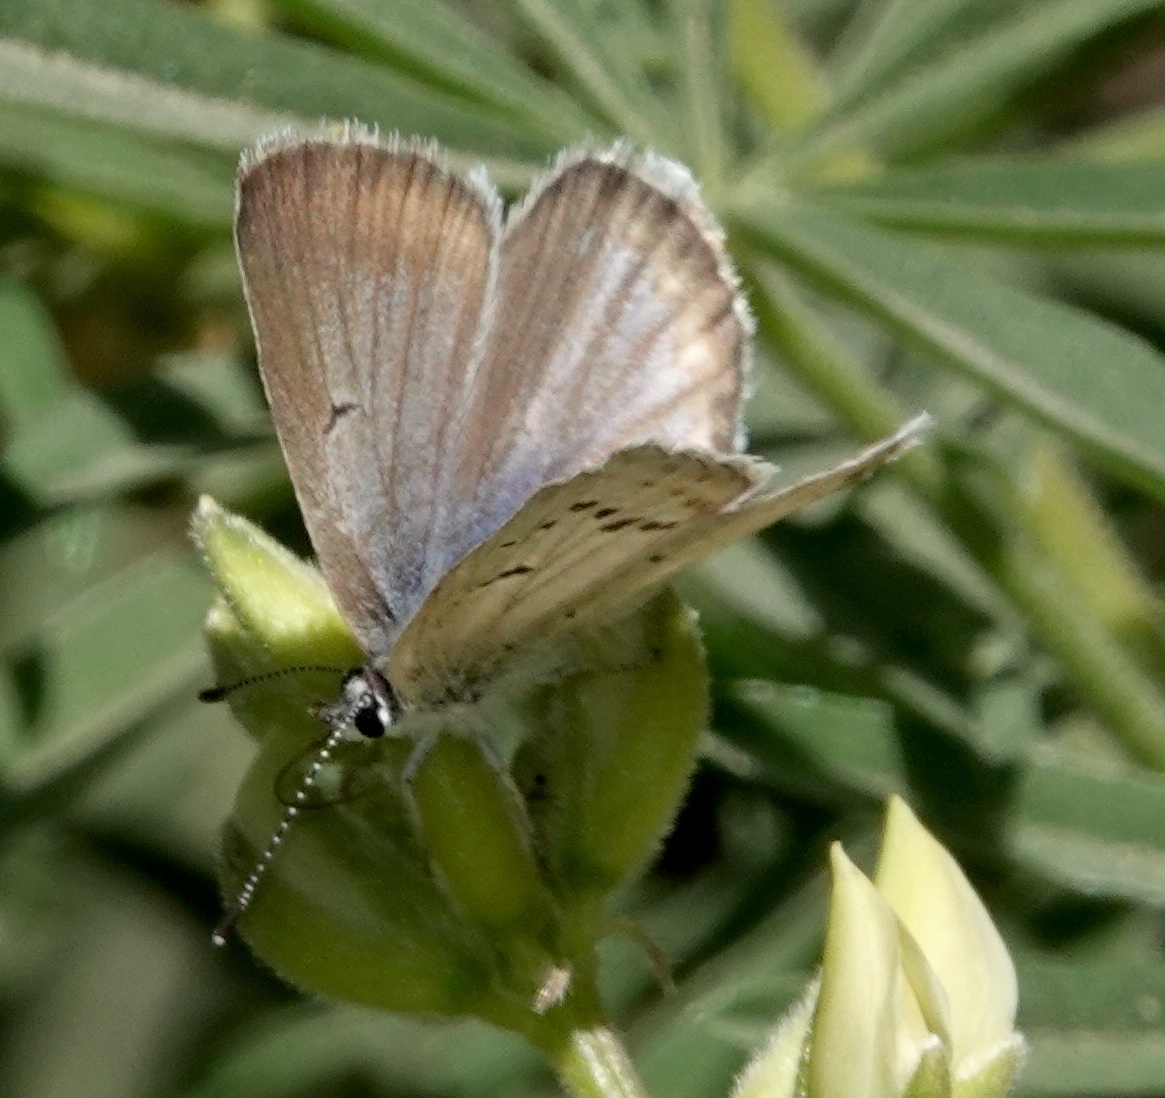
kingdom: Animalia
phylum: Arthropoda
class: Insecta
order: Lepidoptera
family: Lycaenidae
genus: Icaricia
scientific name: Icaricia saepiolus
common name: Greenish blue
